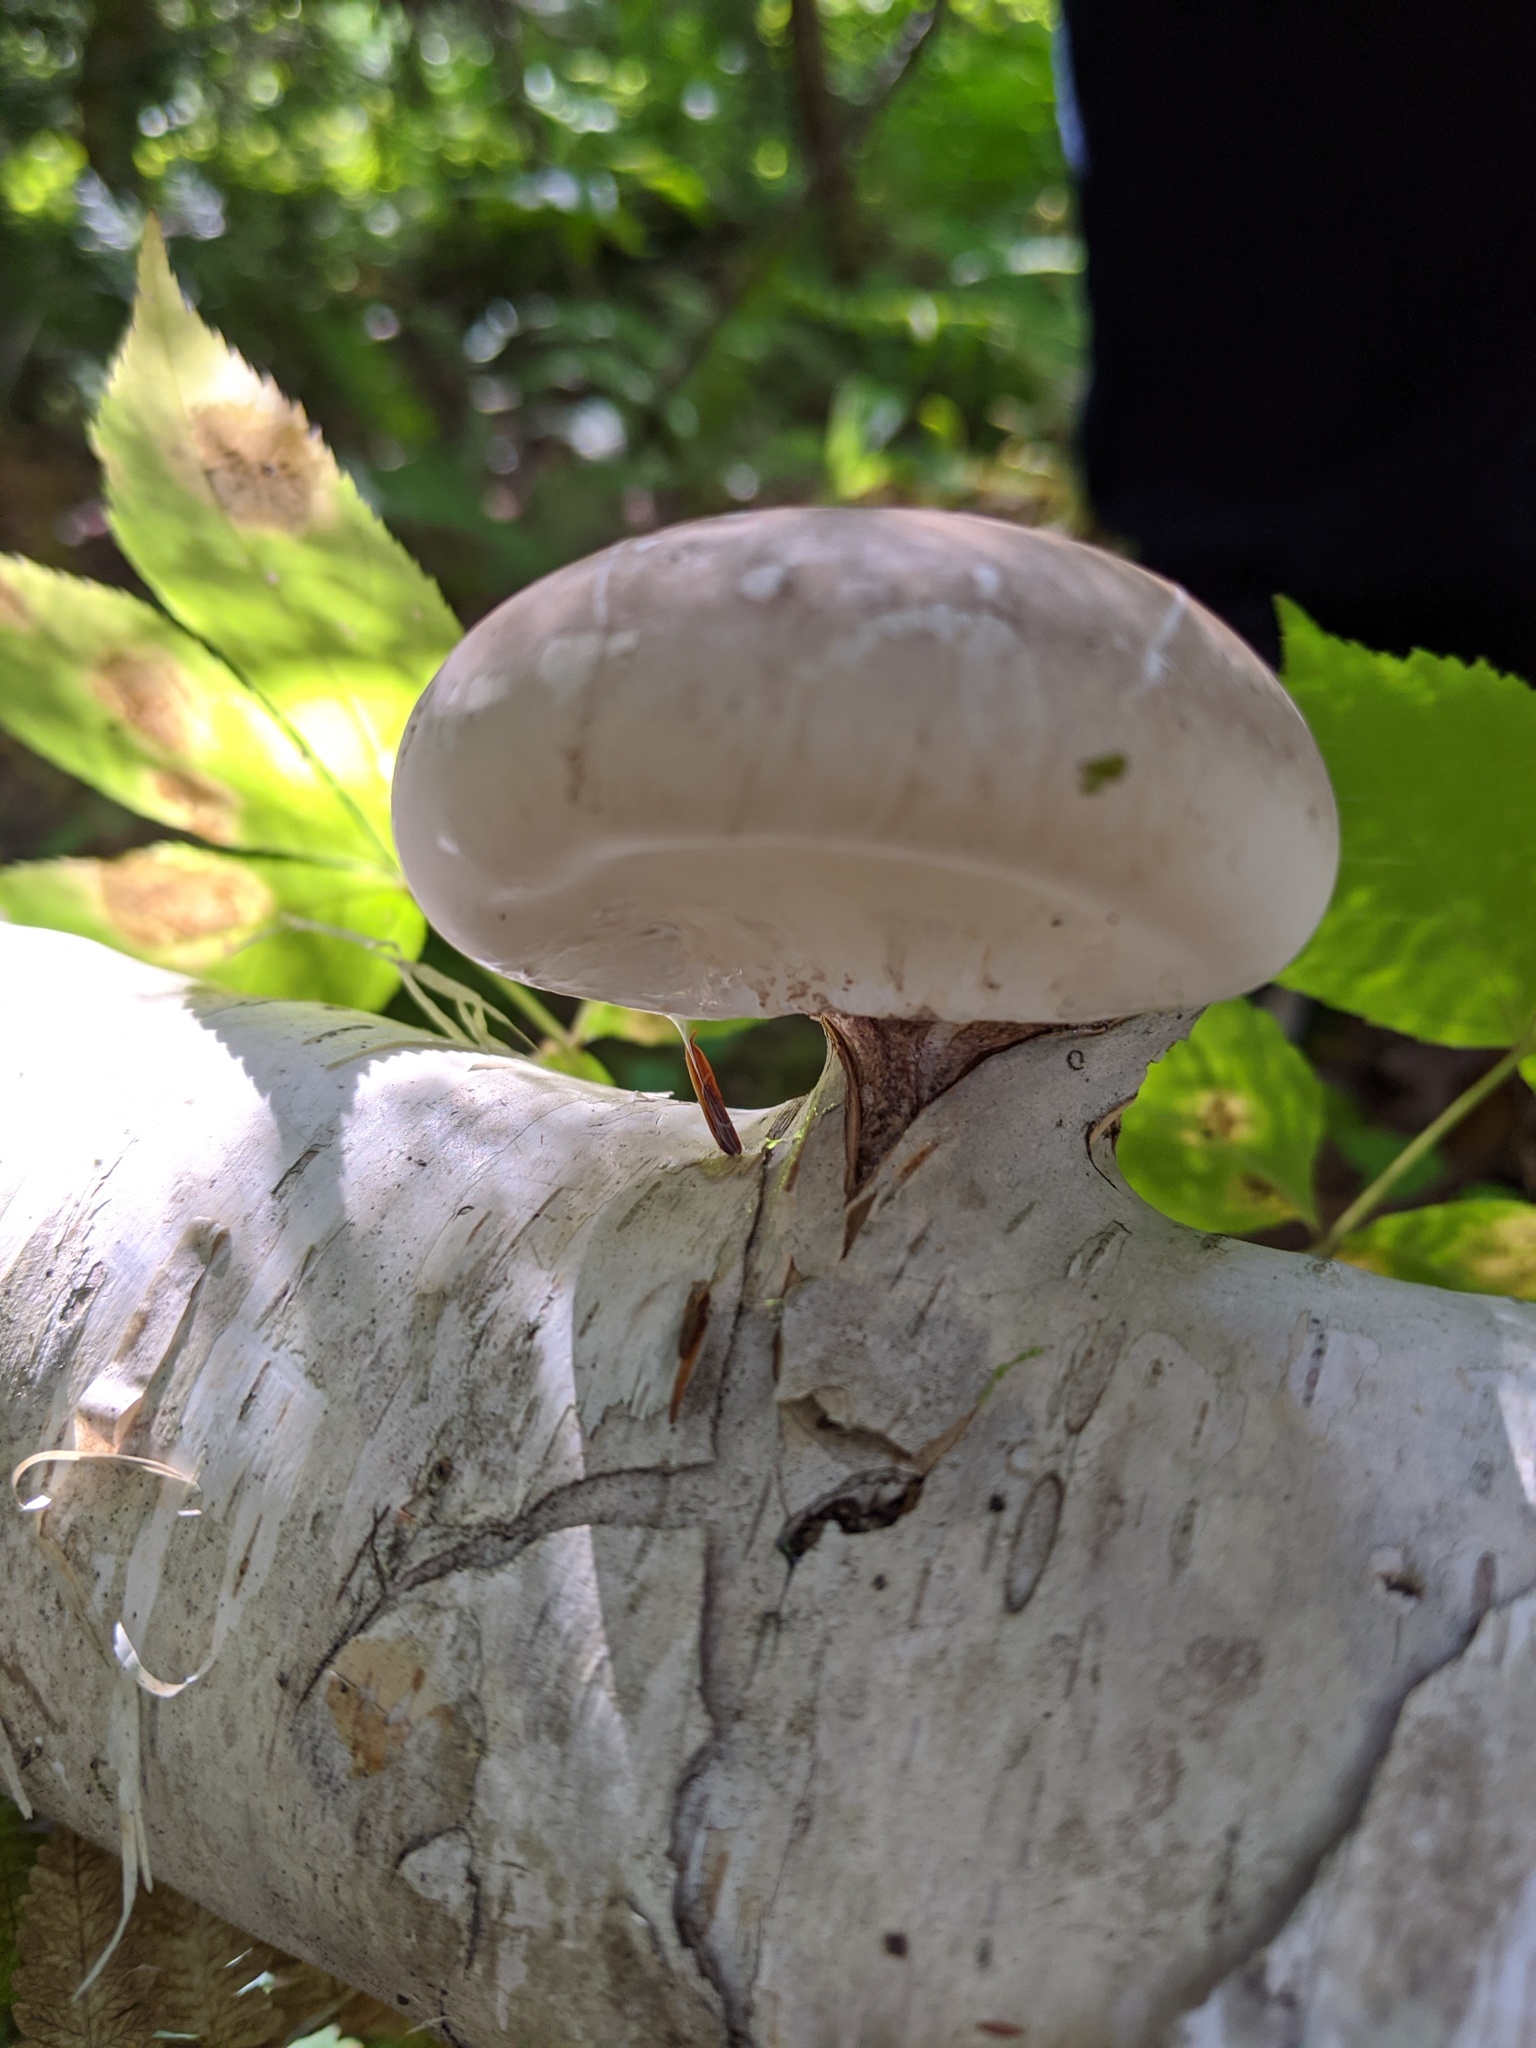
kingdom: Fungi
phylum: Basidiomycota
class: Agaricomycetes
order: Polyporales
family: Fomitopsidaceae
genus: Fomitopsis
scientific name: Fomitopsis betulina
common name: Birch polypore
